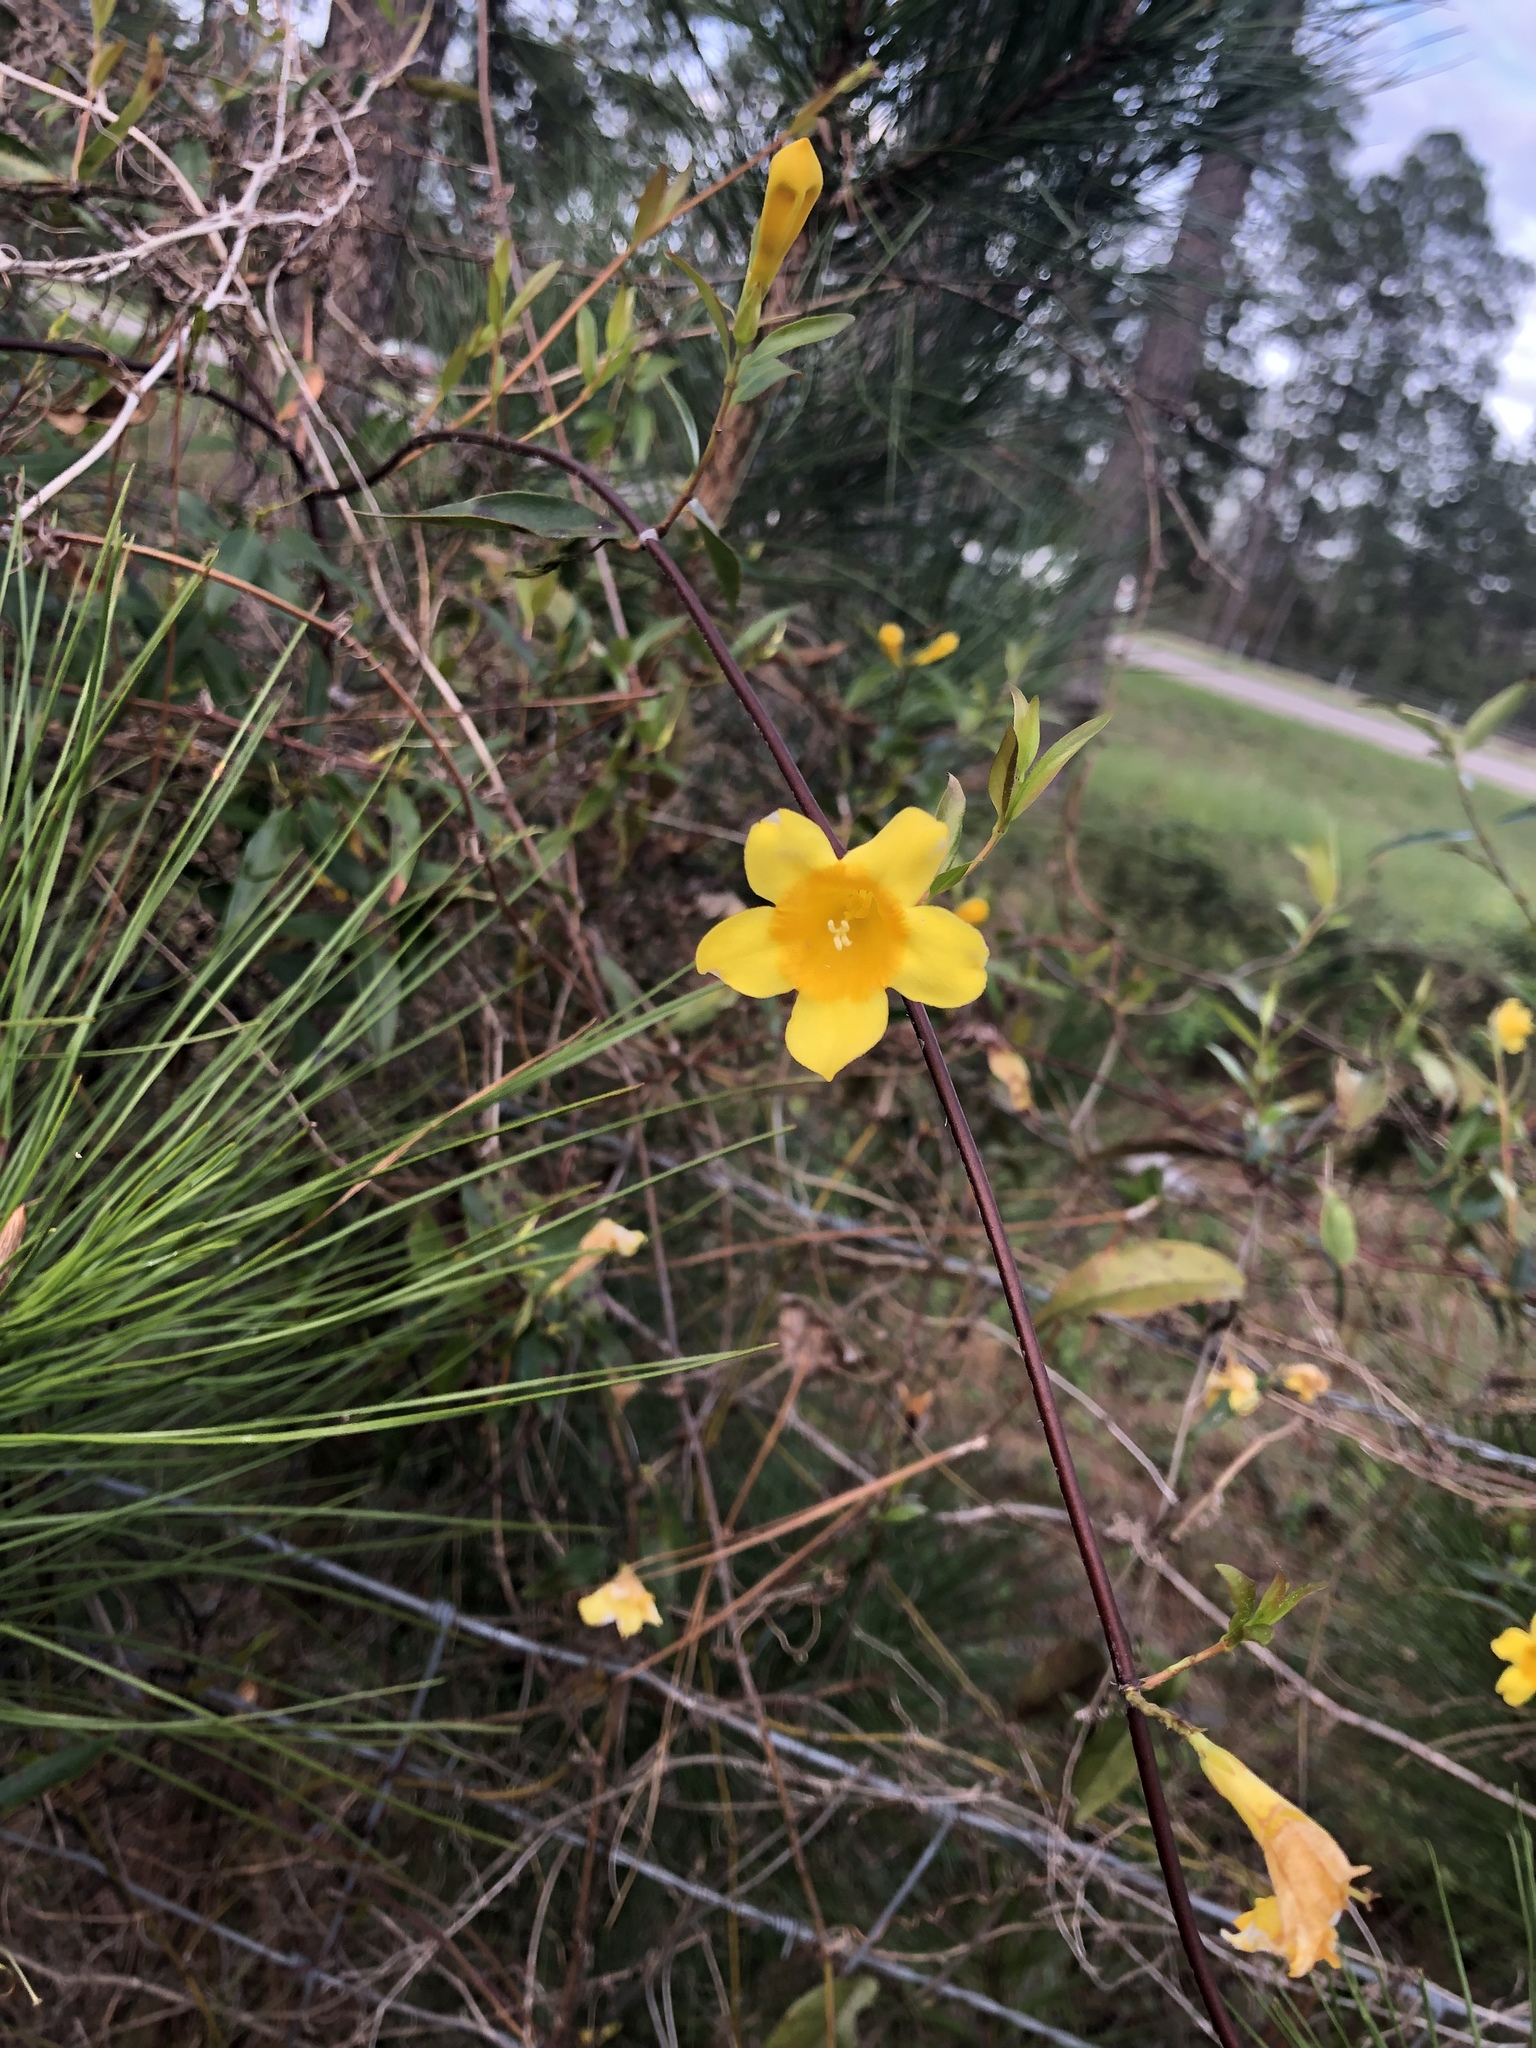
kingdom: Plantae
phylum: Tracheophyta
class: Magnoliopsida
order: Gentianales
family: Gelsemiaceae
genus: Gelsemium
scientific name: Gelsemium sempervirens
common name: Carolina-jasmine
